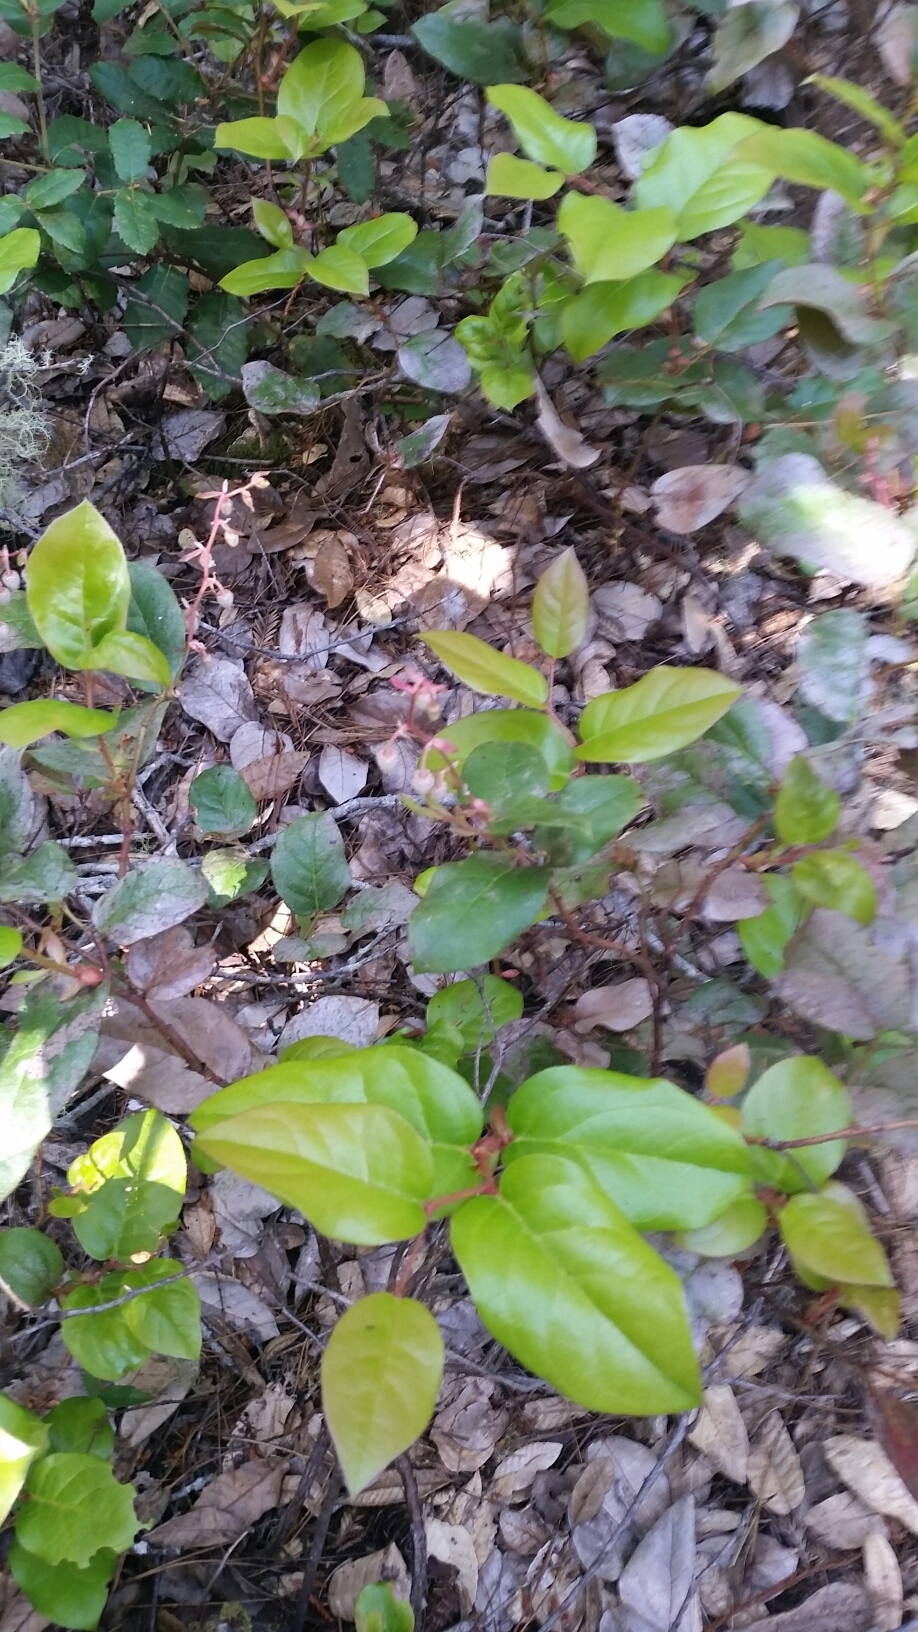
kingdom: Plantae
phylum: Tracheophyta
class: Magnoliopsida
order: Ericales
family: Ericaceae
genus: Gaultheria
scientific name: Gaultheria shallon
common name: Shallon
